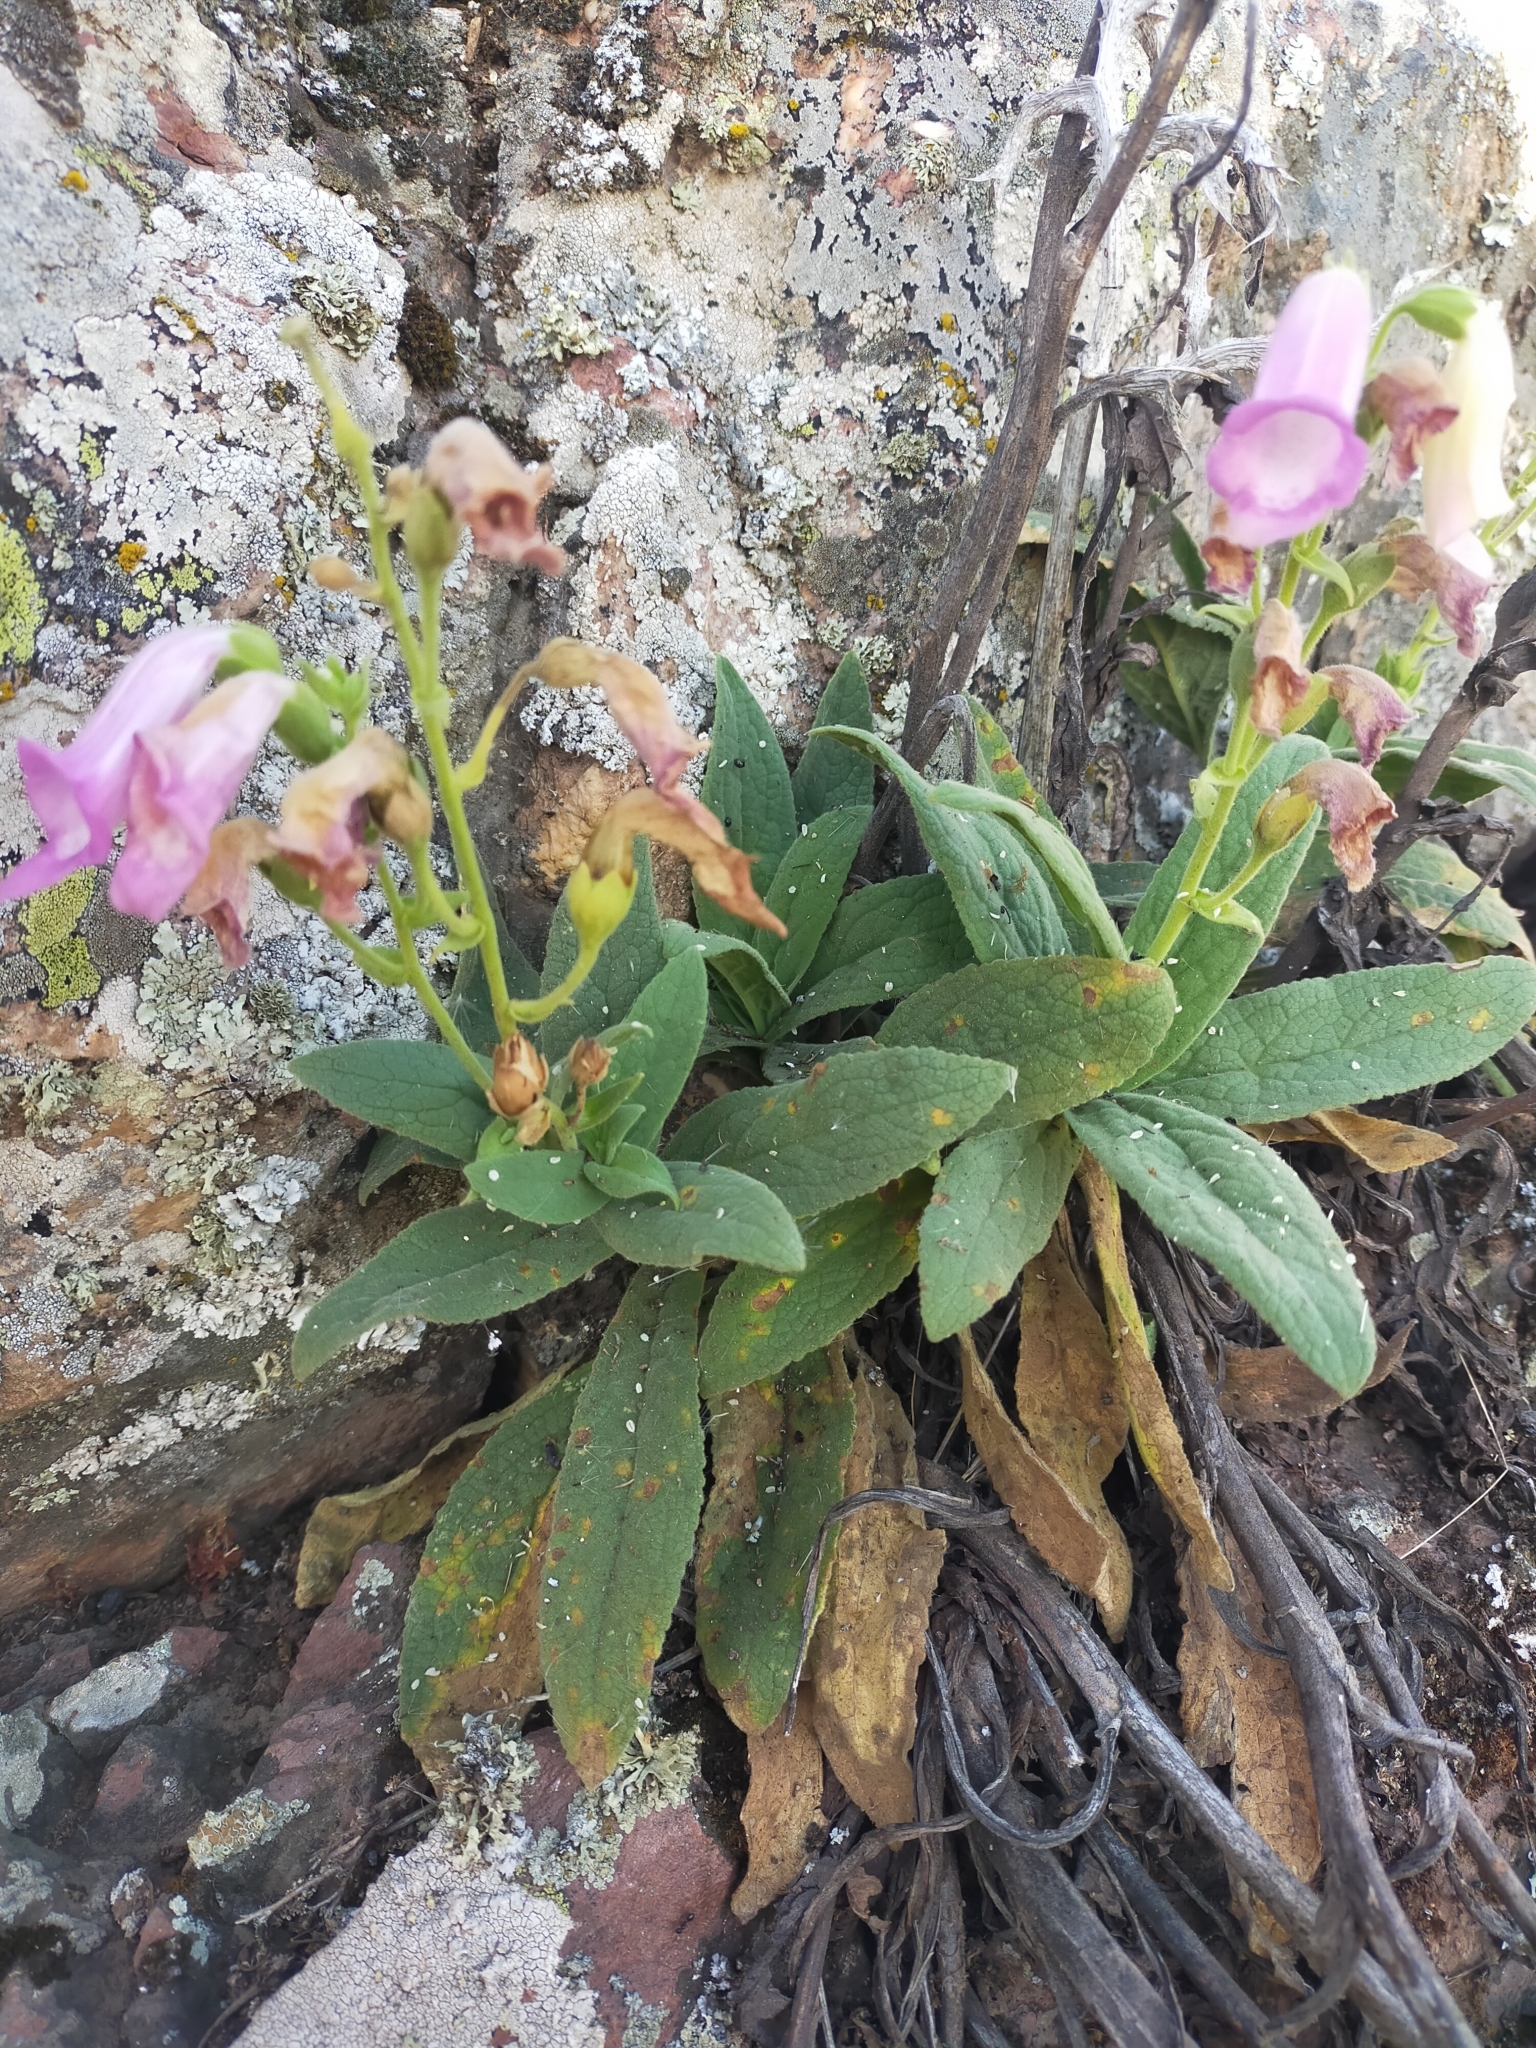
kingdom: Plantae
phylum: Tracheophyta
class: Magnoliopsida
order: Lamiales
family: Plantaginaceae
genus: Digitalis
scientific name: Digitalis thapsi
